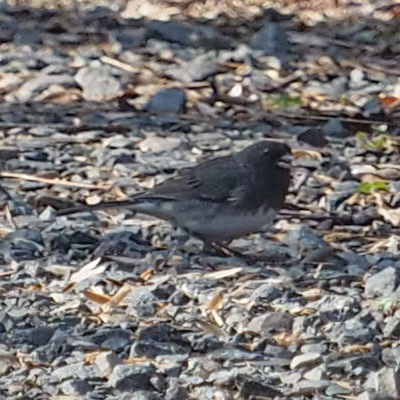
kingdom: Animalia
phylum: Chordata
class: Aves
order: Passeriformes
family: Passerellidae
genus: Junco
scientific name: Junco hyemalis
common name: Dark-eyed junco
